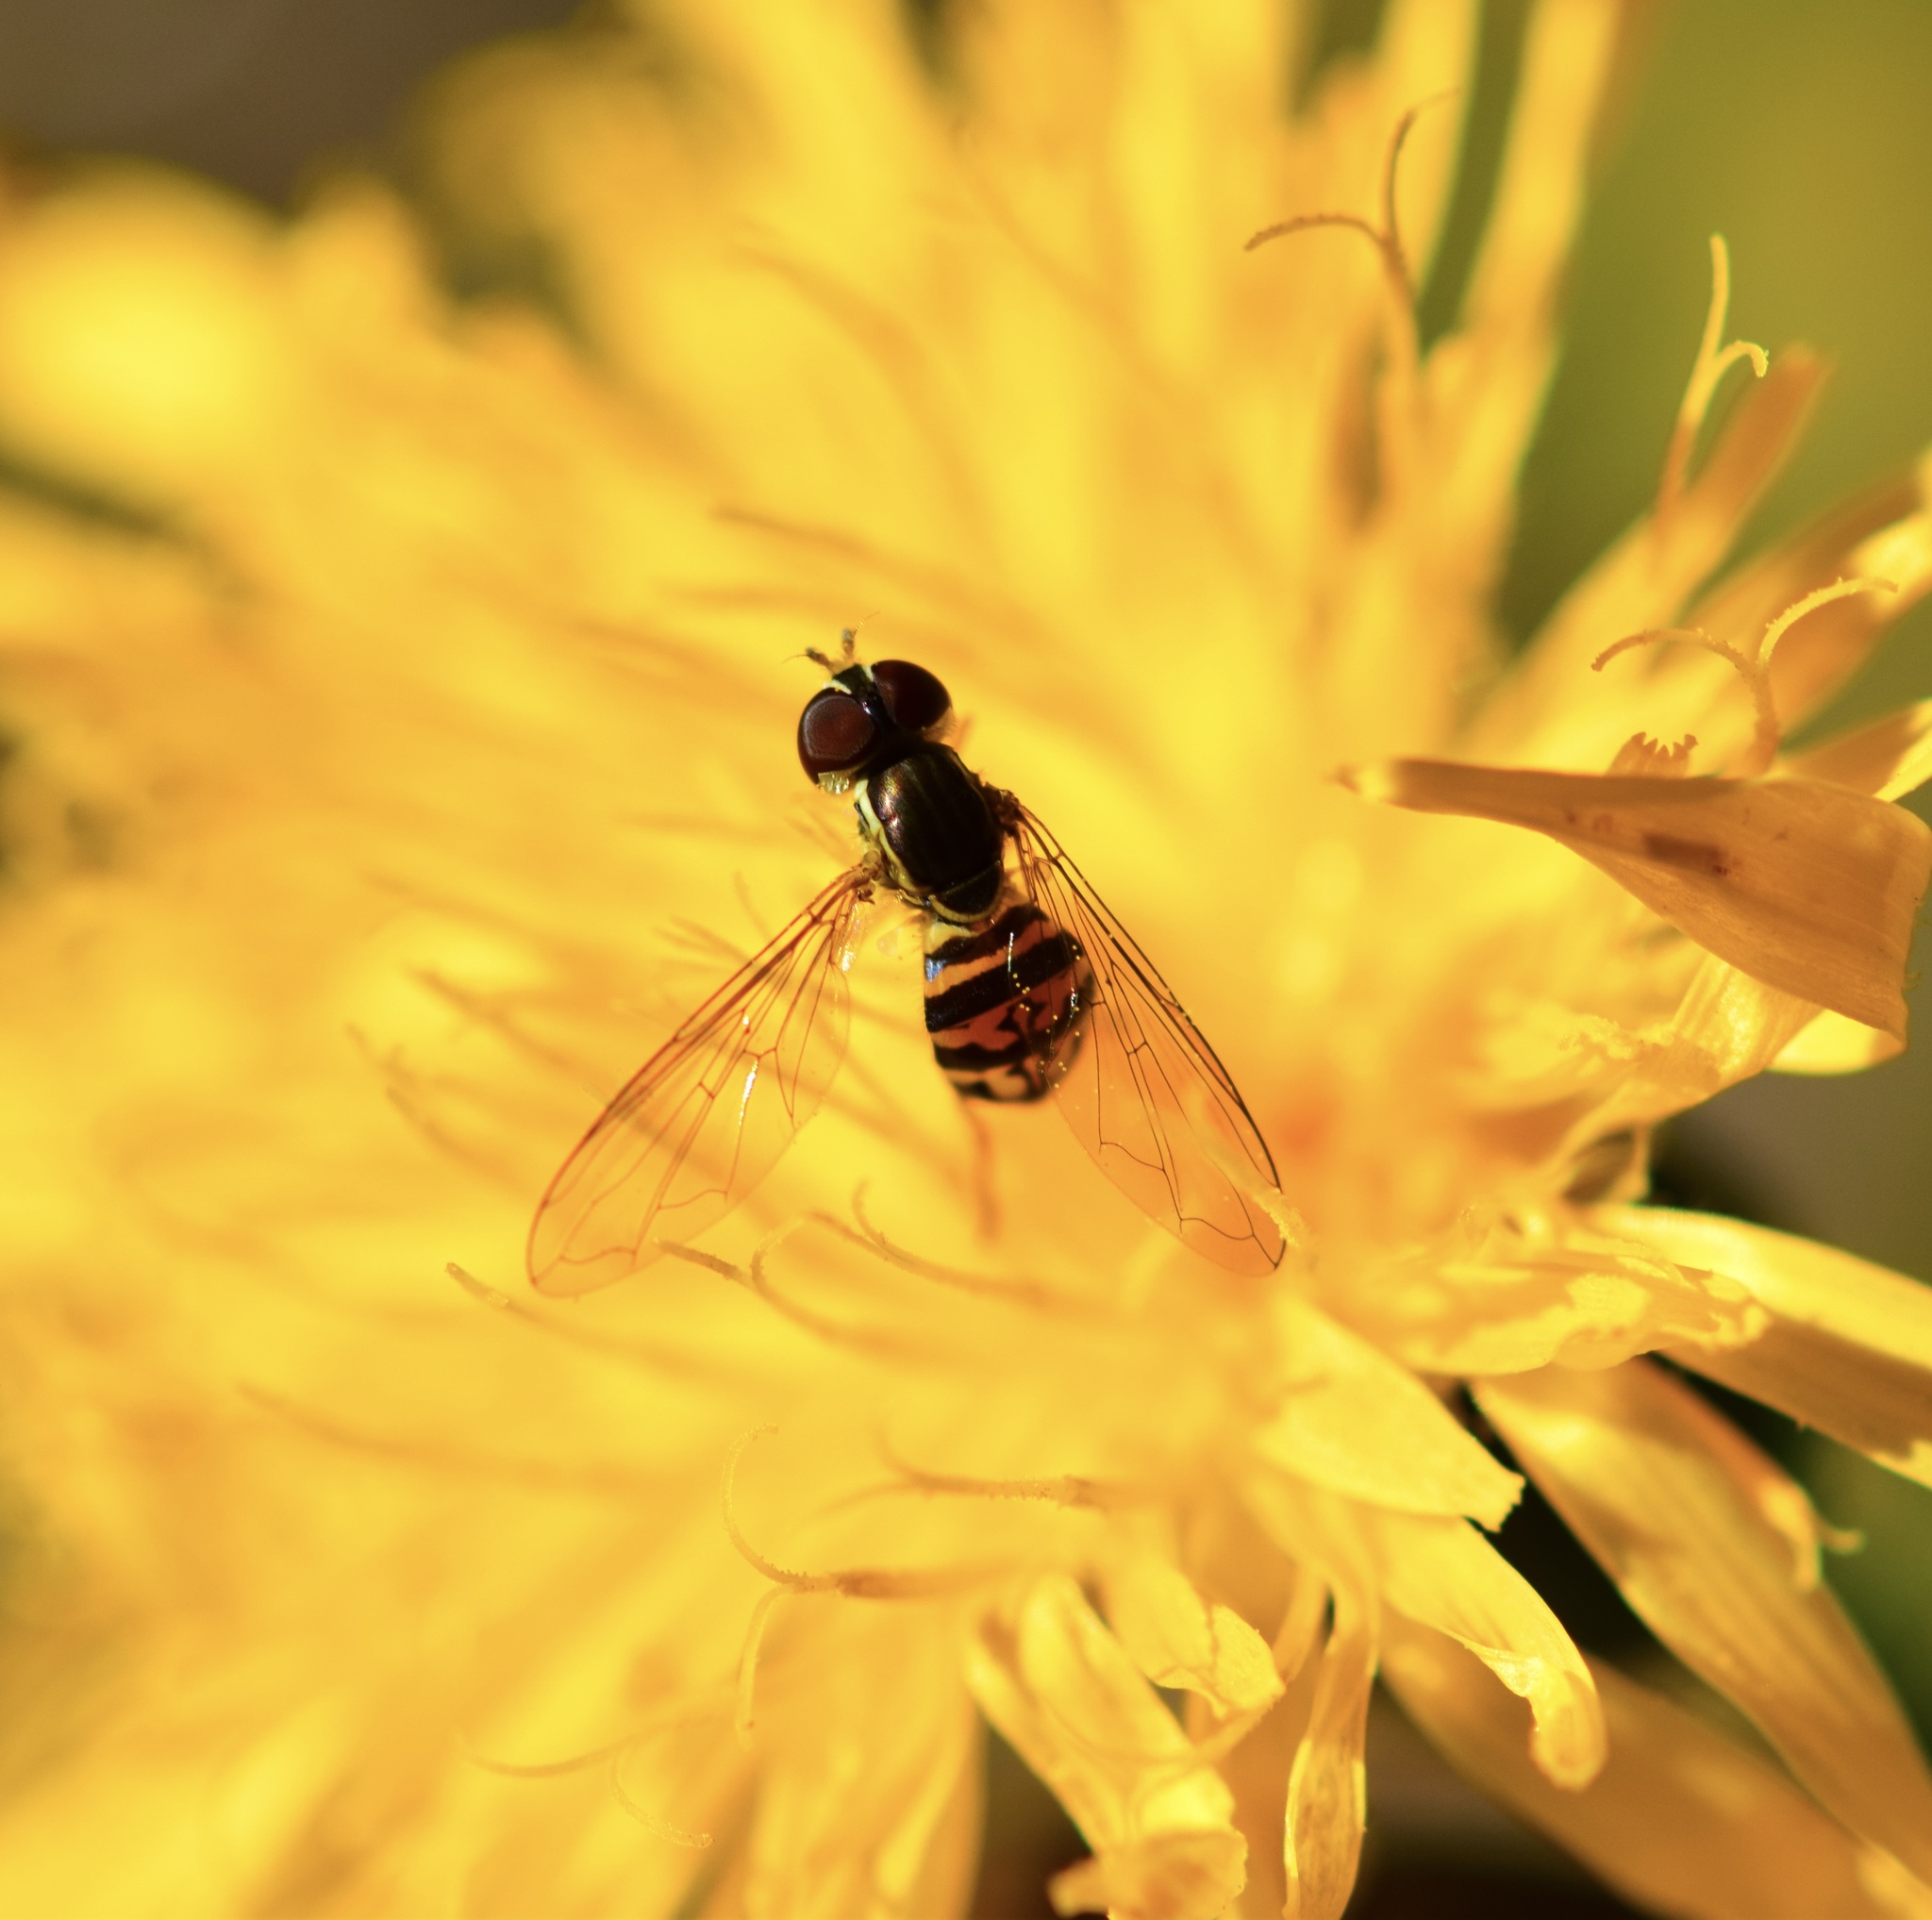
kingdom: Animalia
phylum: Arthropoda
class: Insecta
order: Diptera
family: Syrphidae
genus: Toxomerus
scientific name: Toxomerus geminatus
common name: Eastern calligrapher
